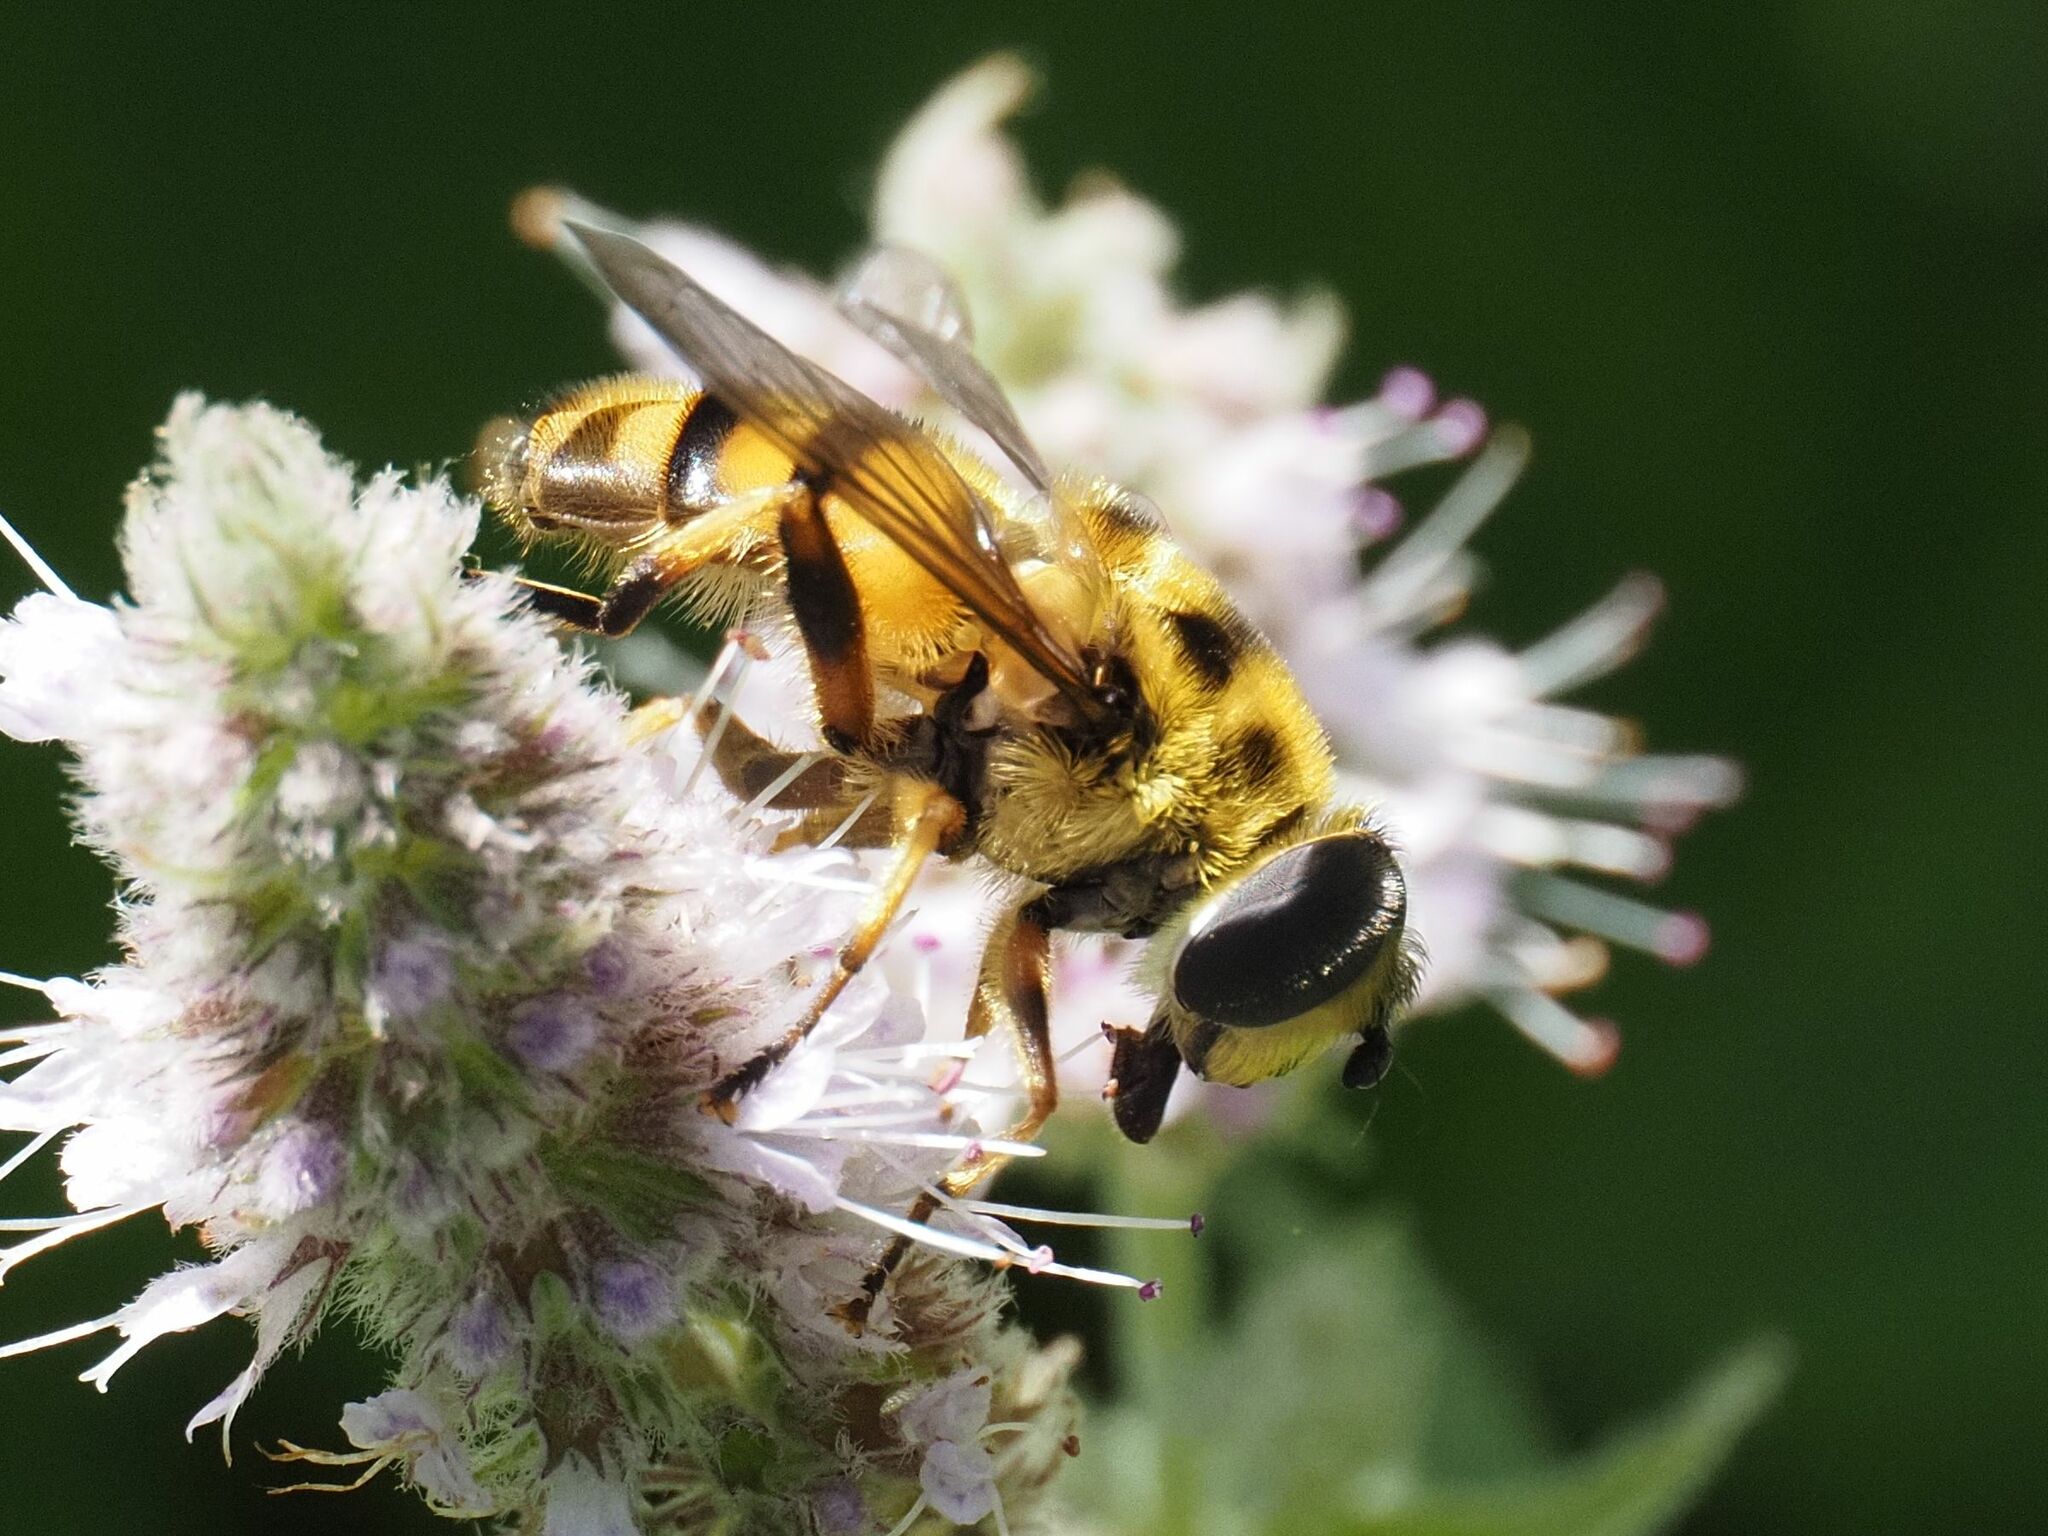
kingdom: Animalia
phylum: Arthropoda
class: Insecta
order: Diptera
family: Syrphidae
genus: Myathropa
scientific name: Myathropa florea
